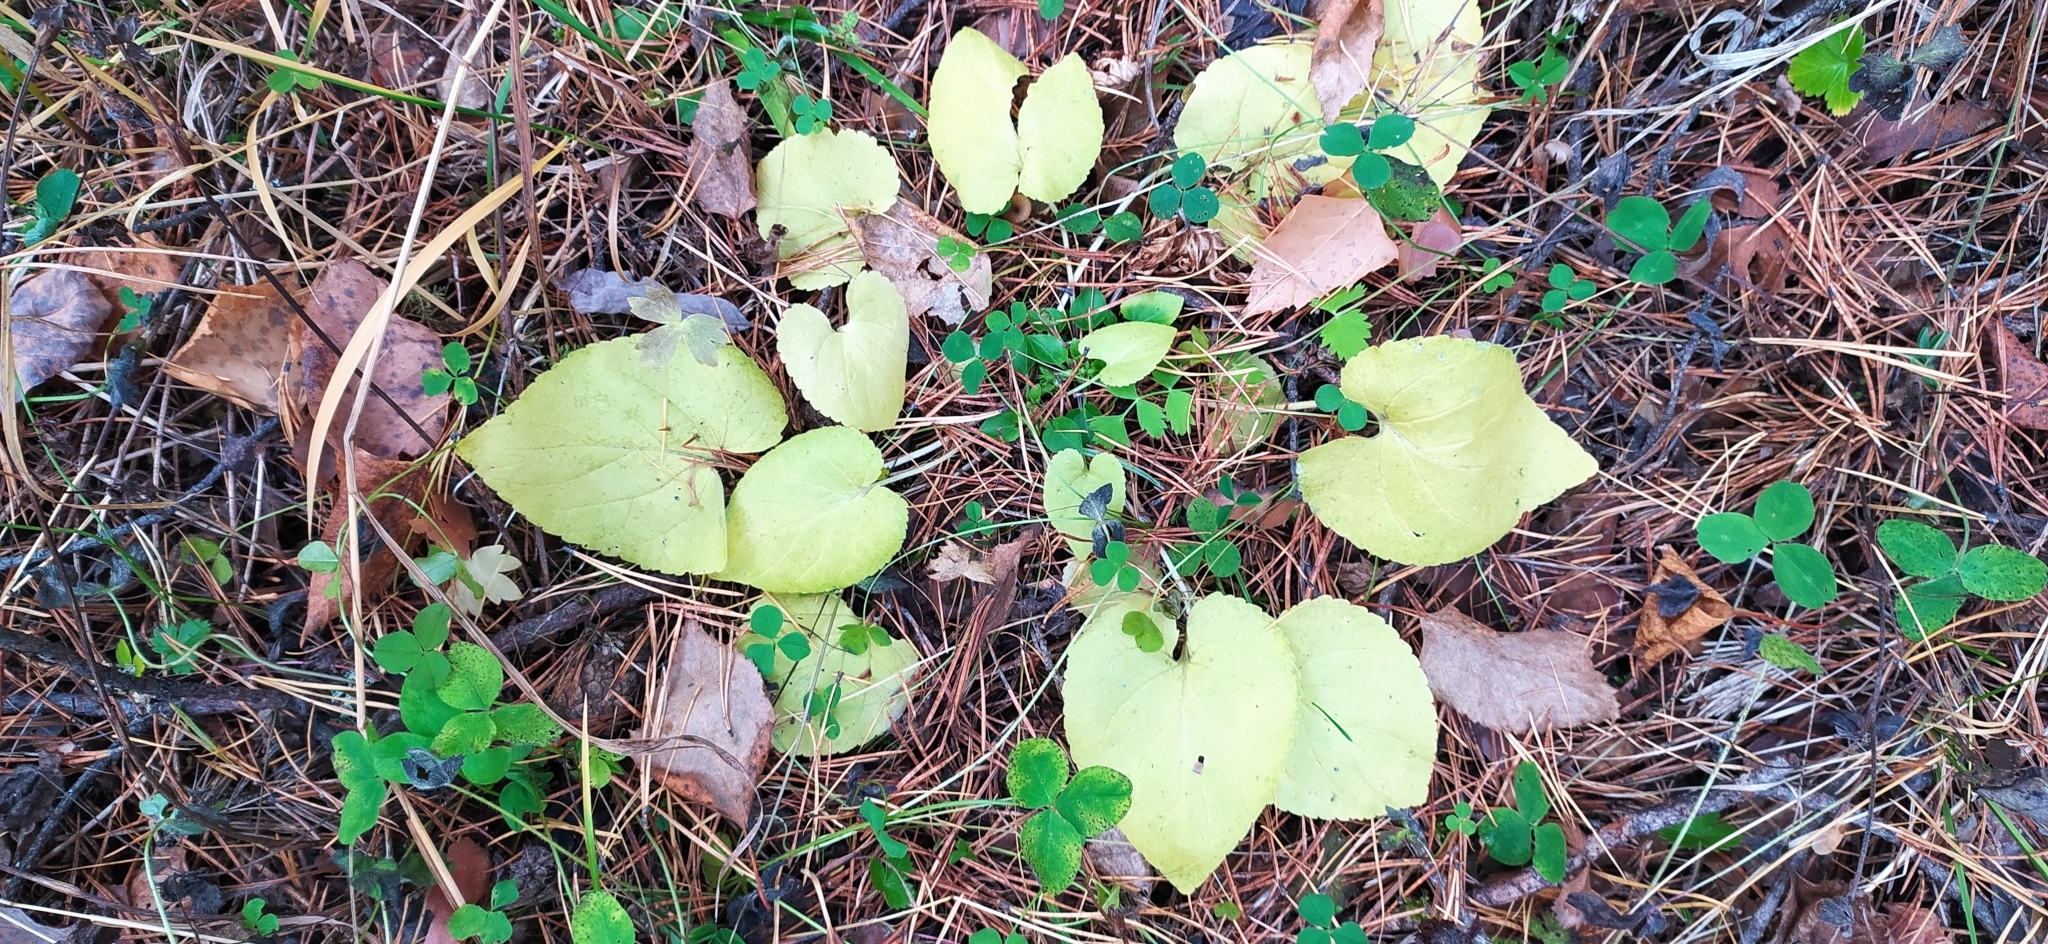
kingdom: Plantae
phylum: Tracheophyta
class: Magnoliopsida
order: Malpighiales
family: Violaceae
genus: Viola
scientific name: Viola collina
